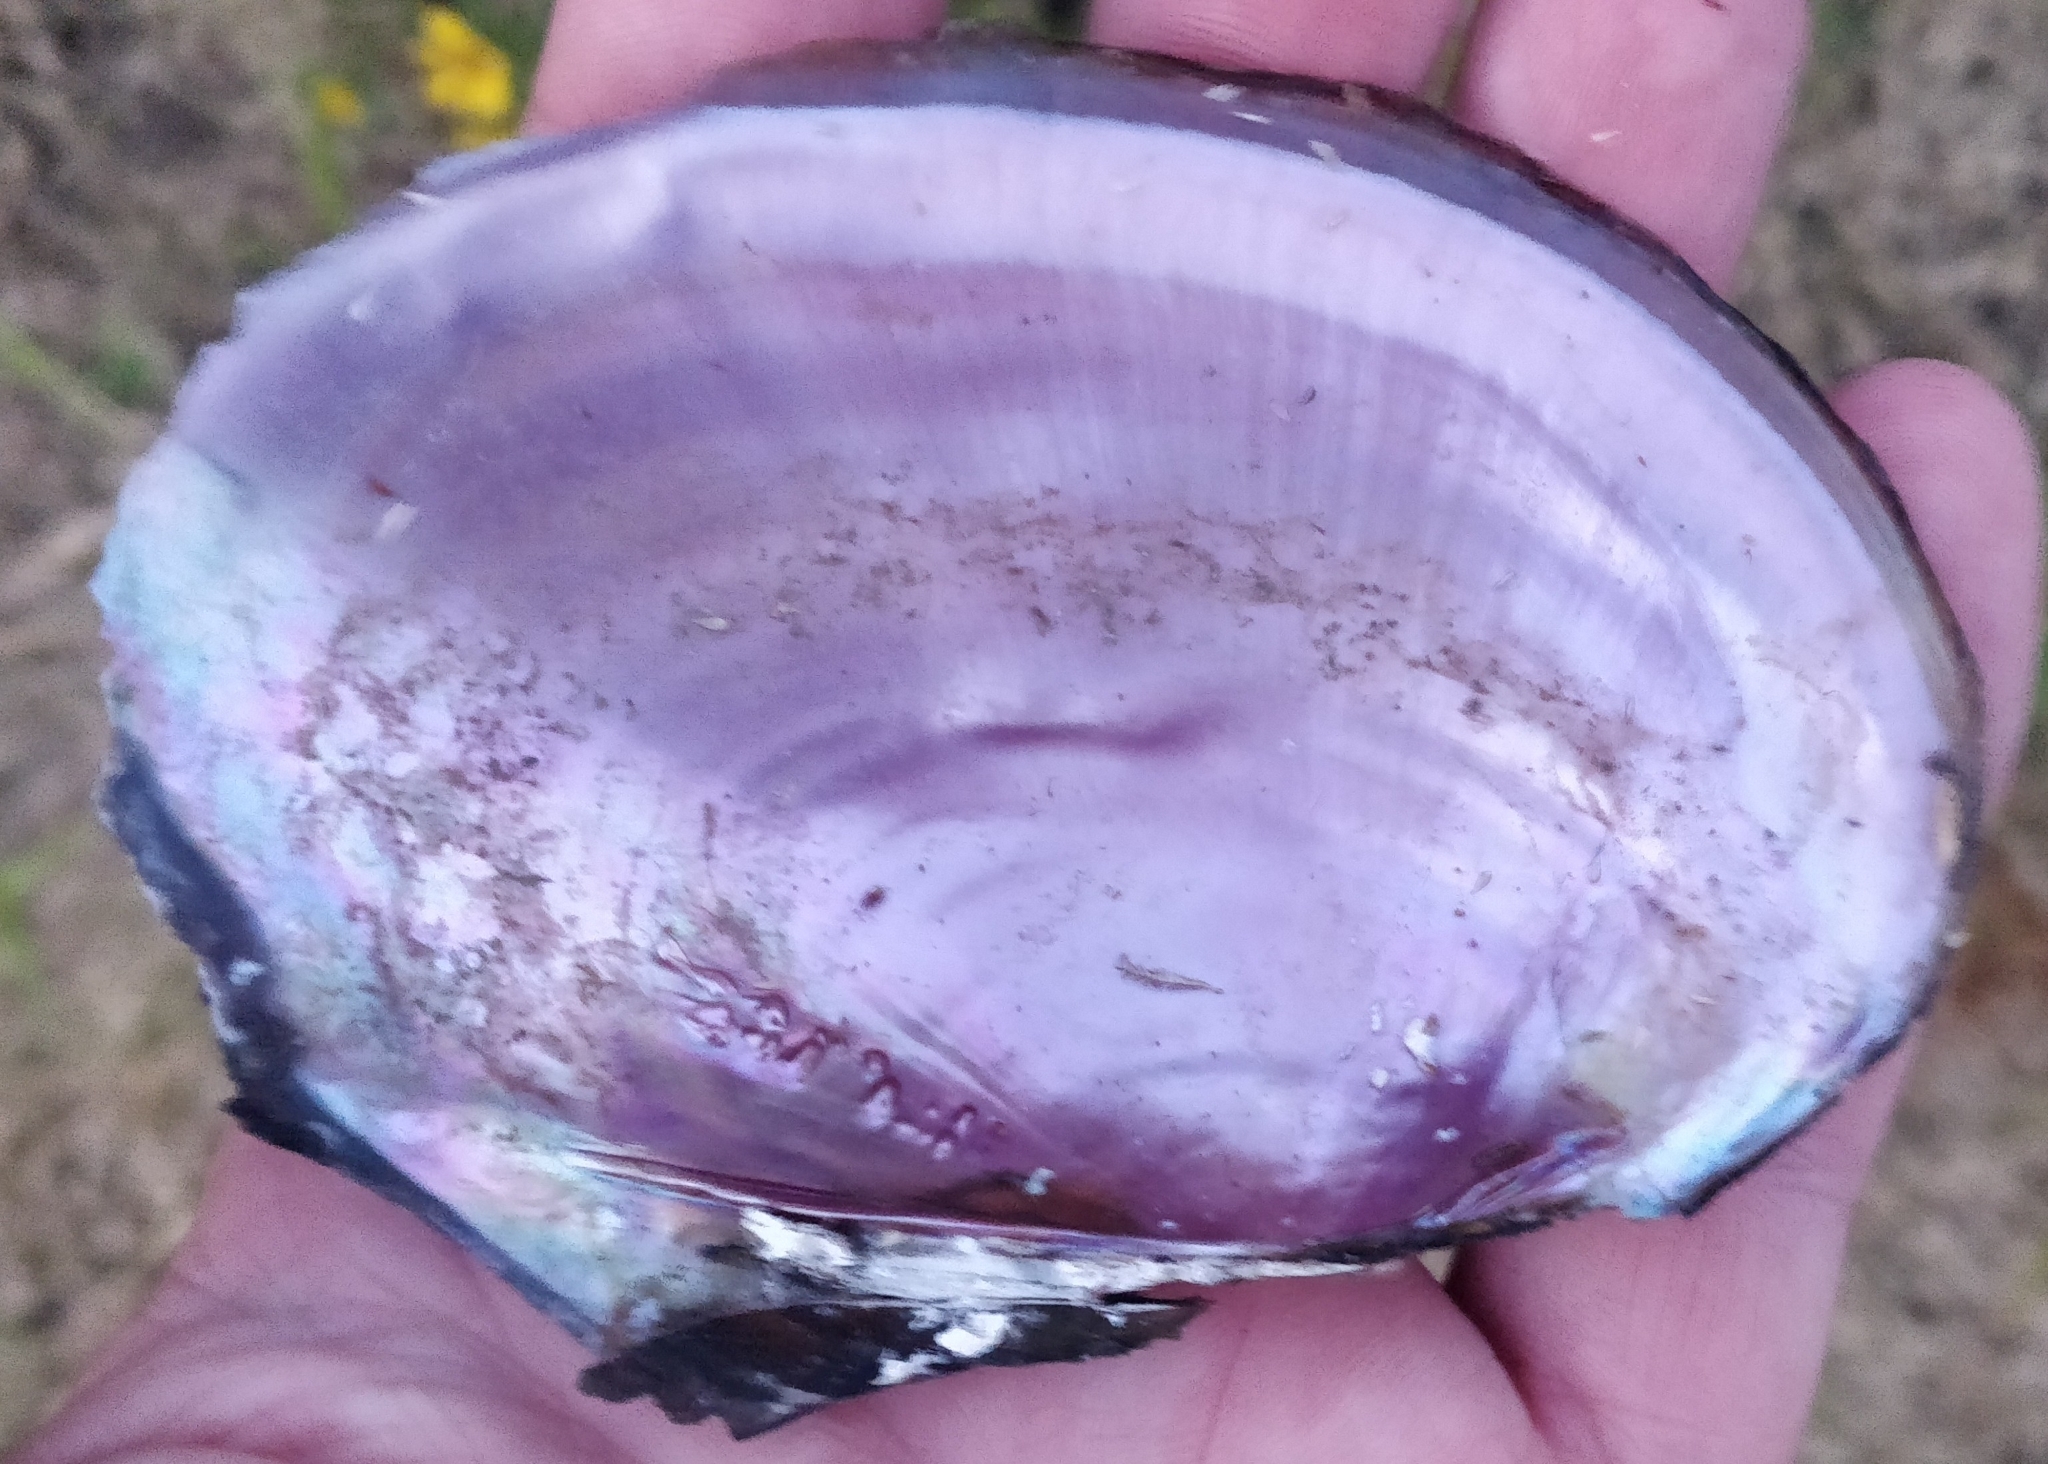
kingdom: Animalia
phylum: Mollusca
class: Bivalvia
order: Unionida
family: Unionidae
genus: Potamilus
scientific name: Potamilus ohiensis
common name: Pink papershell
